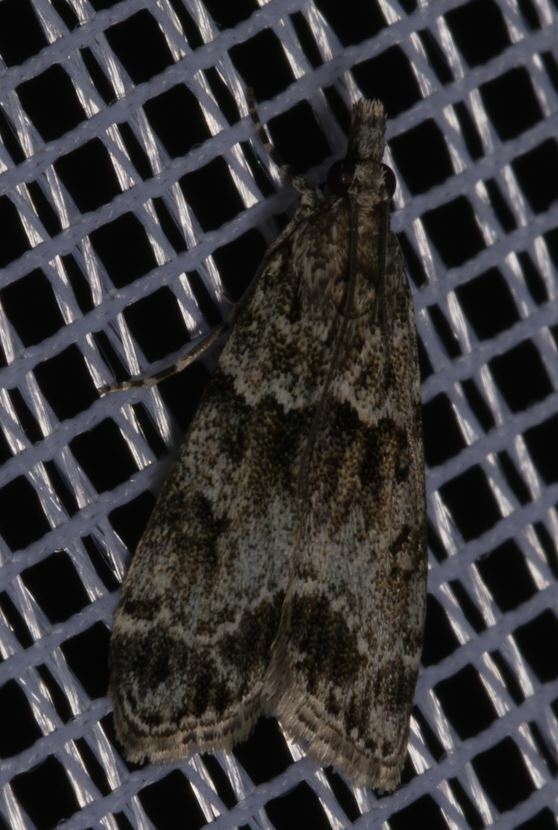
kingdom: Animalia
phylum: Arthropoda
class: Insecta
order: Lepidoptera
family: Crambidae
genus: Eudonia
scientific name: Eudonia mercurella
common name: Small grey
